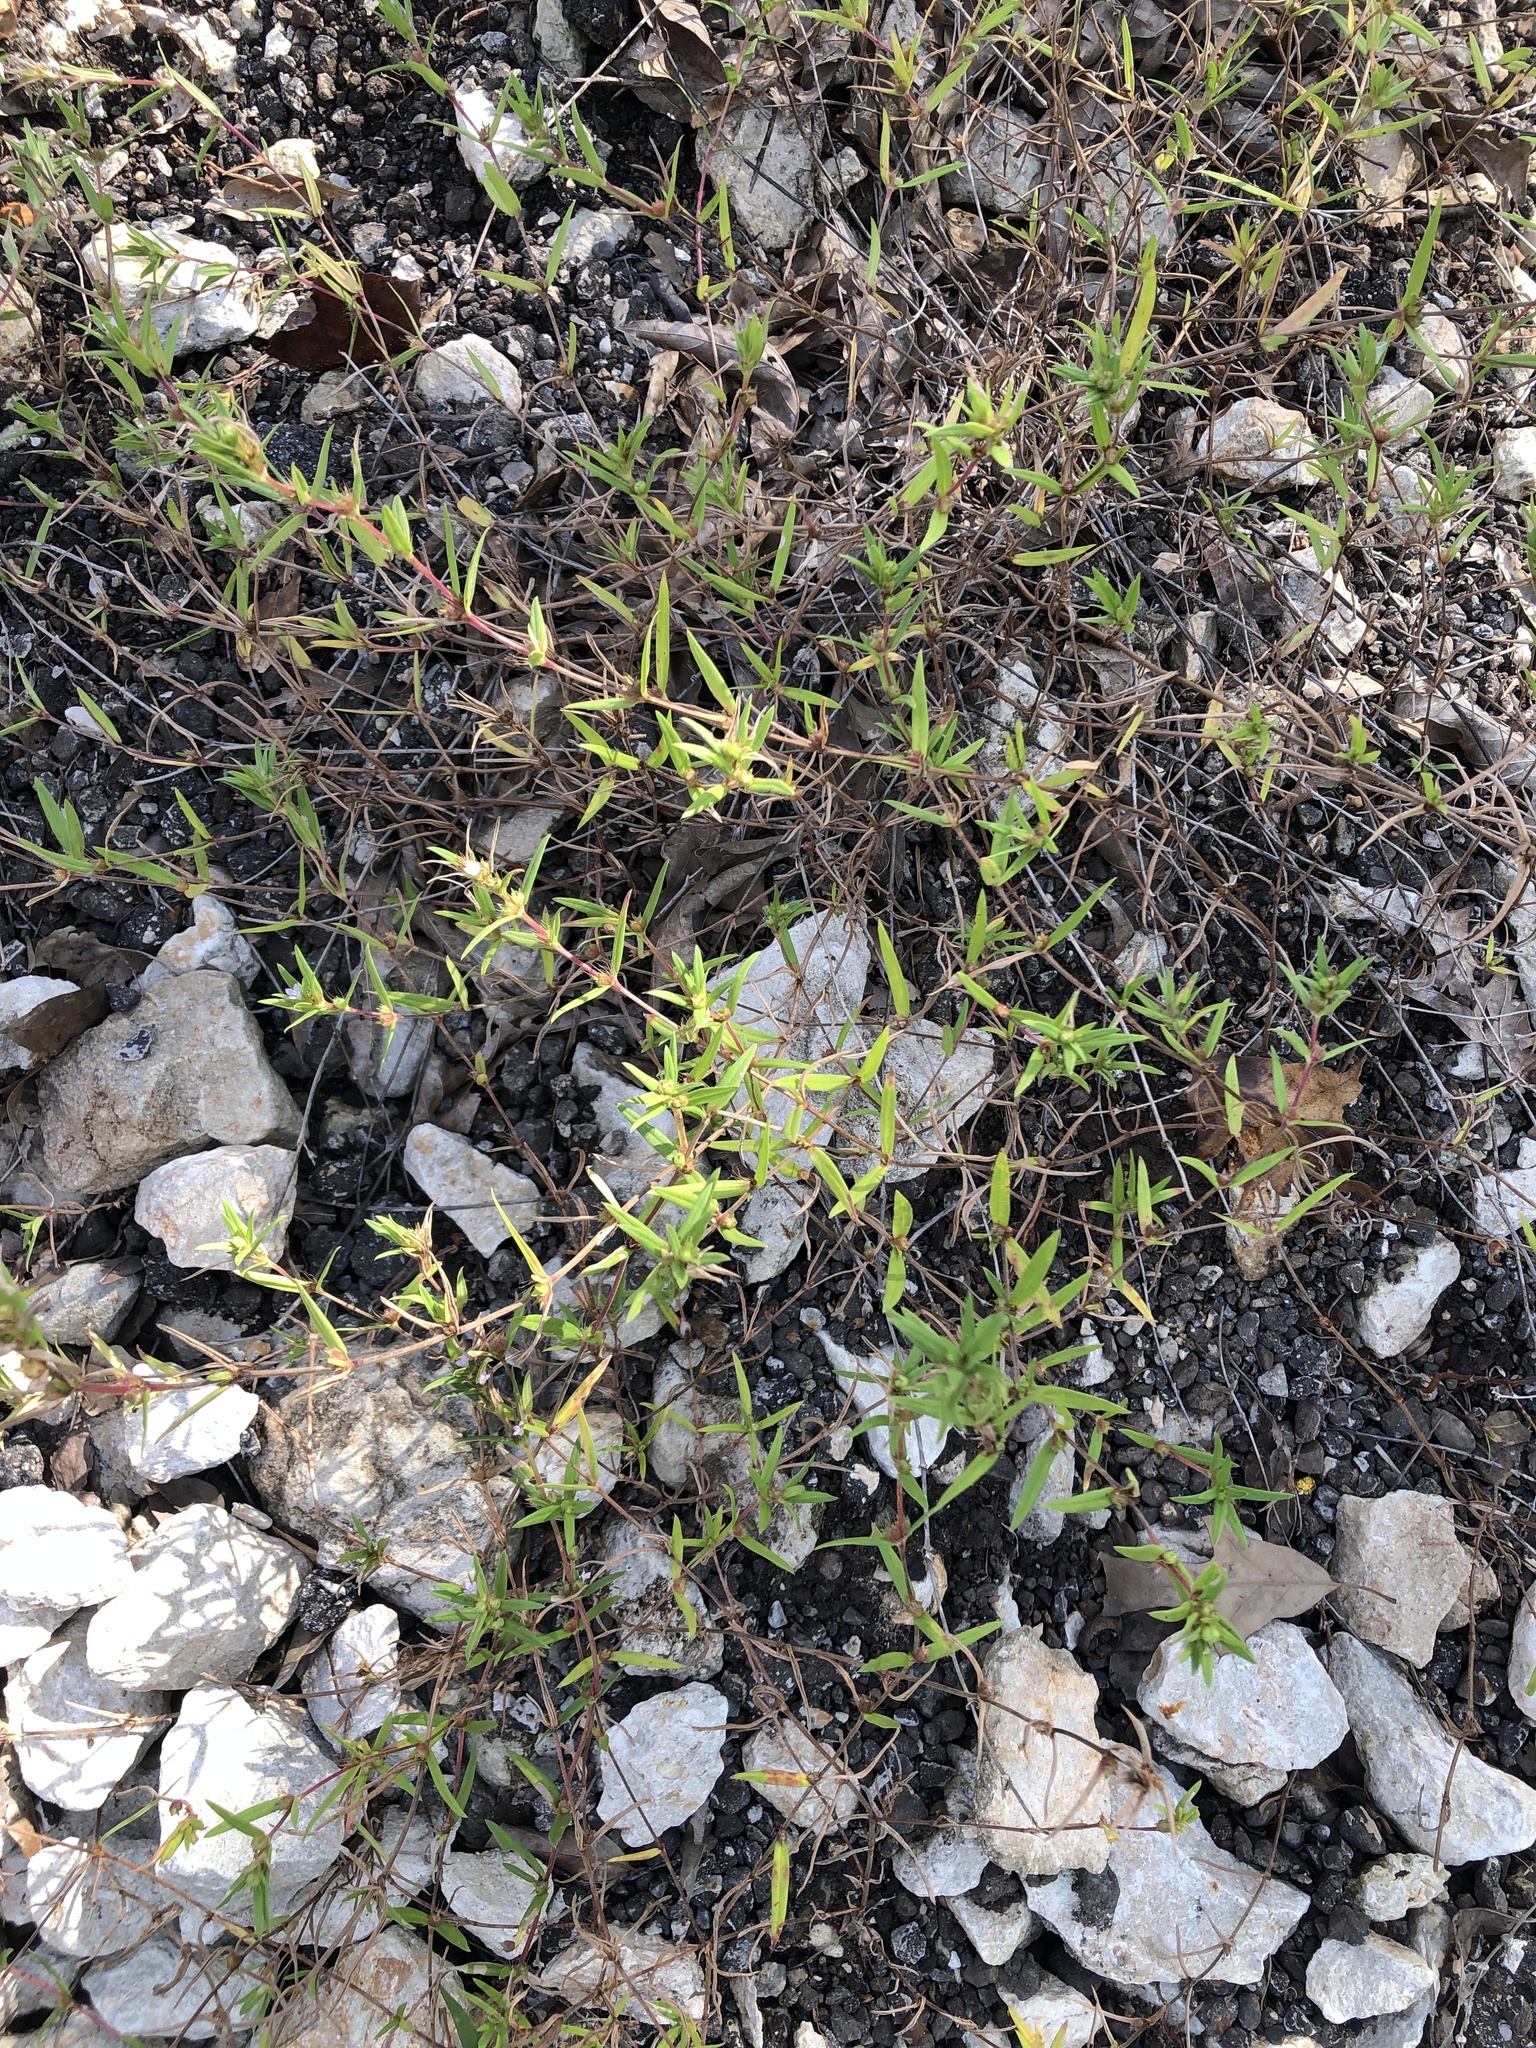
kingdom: Plantae
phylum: Tracheophyta
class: Magnoliopsida
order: Gentianales
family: Rubiaceae
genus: Hexasepalum
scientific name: Hexasepalum teres
